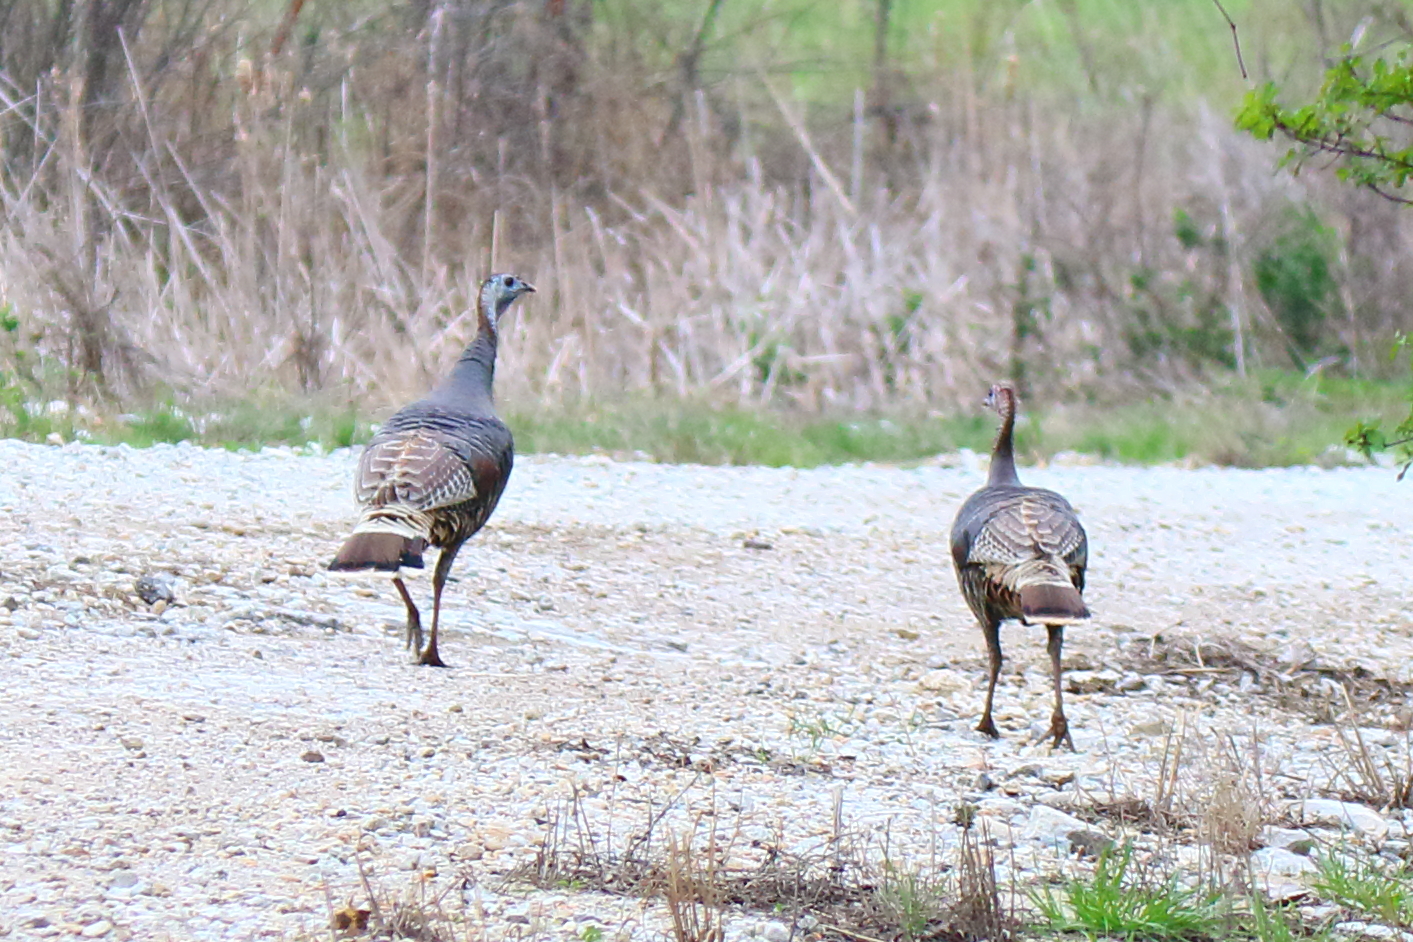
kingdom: Animalia
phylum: Chordata
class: Aves
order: Galliformes
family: Phasianidae
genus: Meleagris
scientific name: Meleagris gallopavo
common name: Wild turkey
